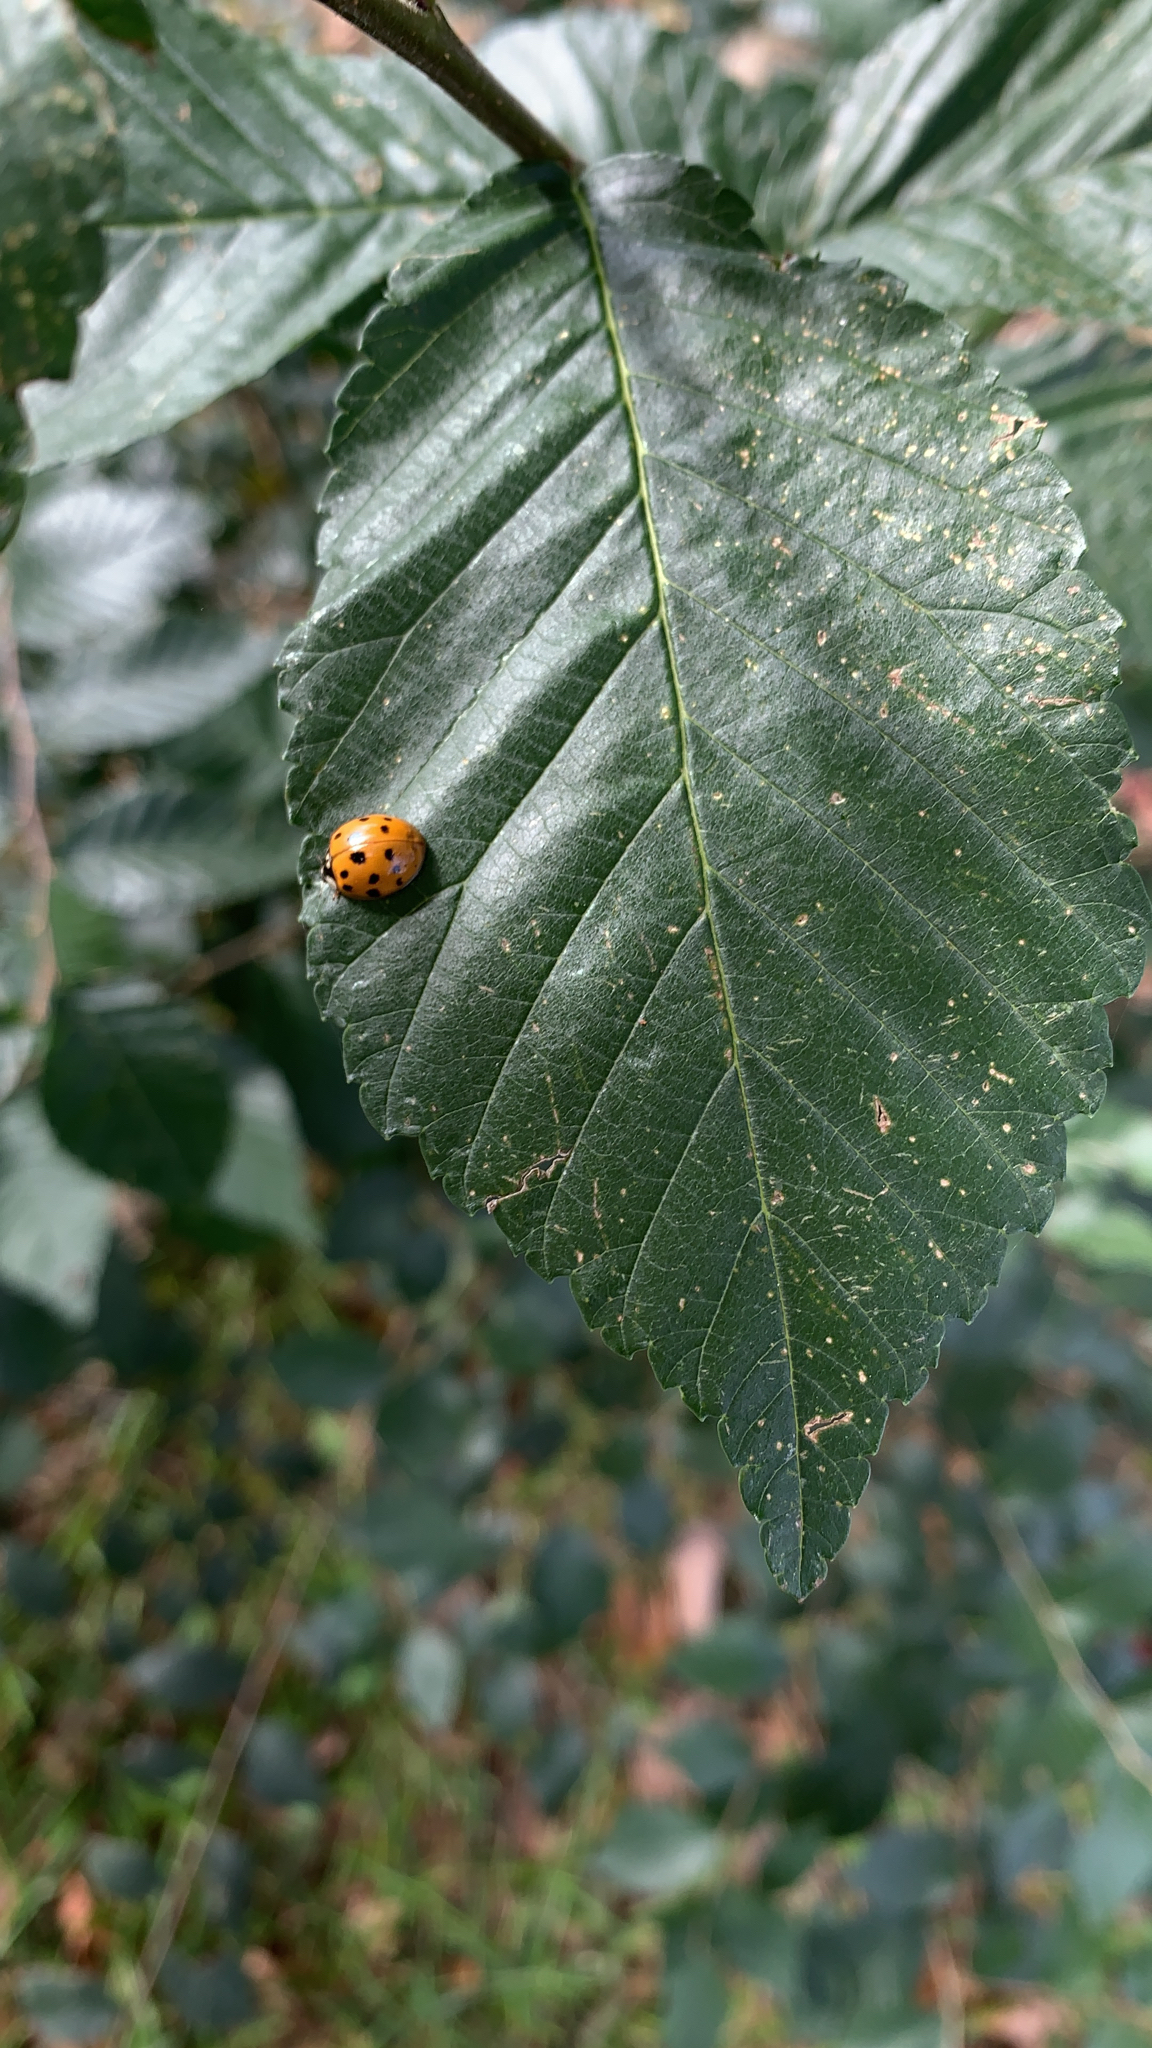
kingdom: Animalia
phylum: Arthropoda
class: Insecta
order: Coleoptera
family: Coccinellidae
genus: Harmonia
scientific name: Harmonia axyridis
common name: Harlequin ladybird
